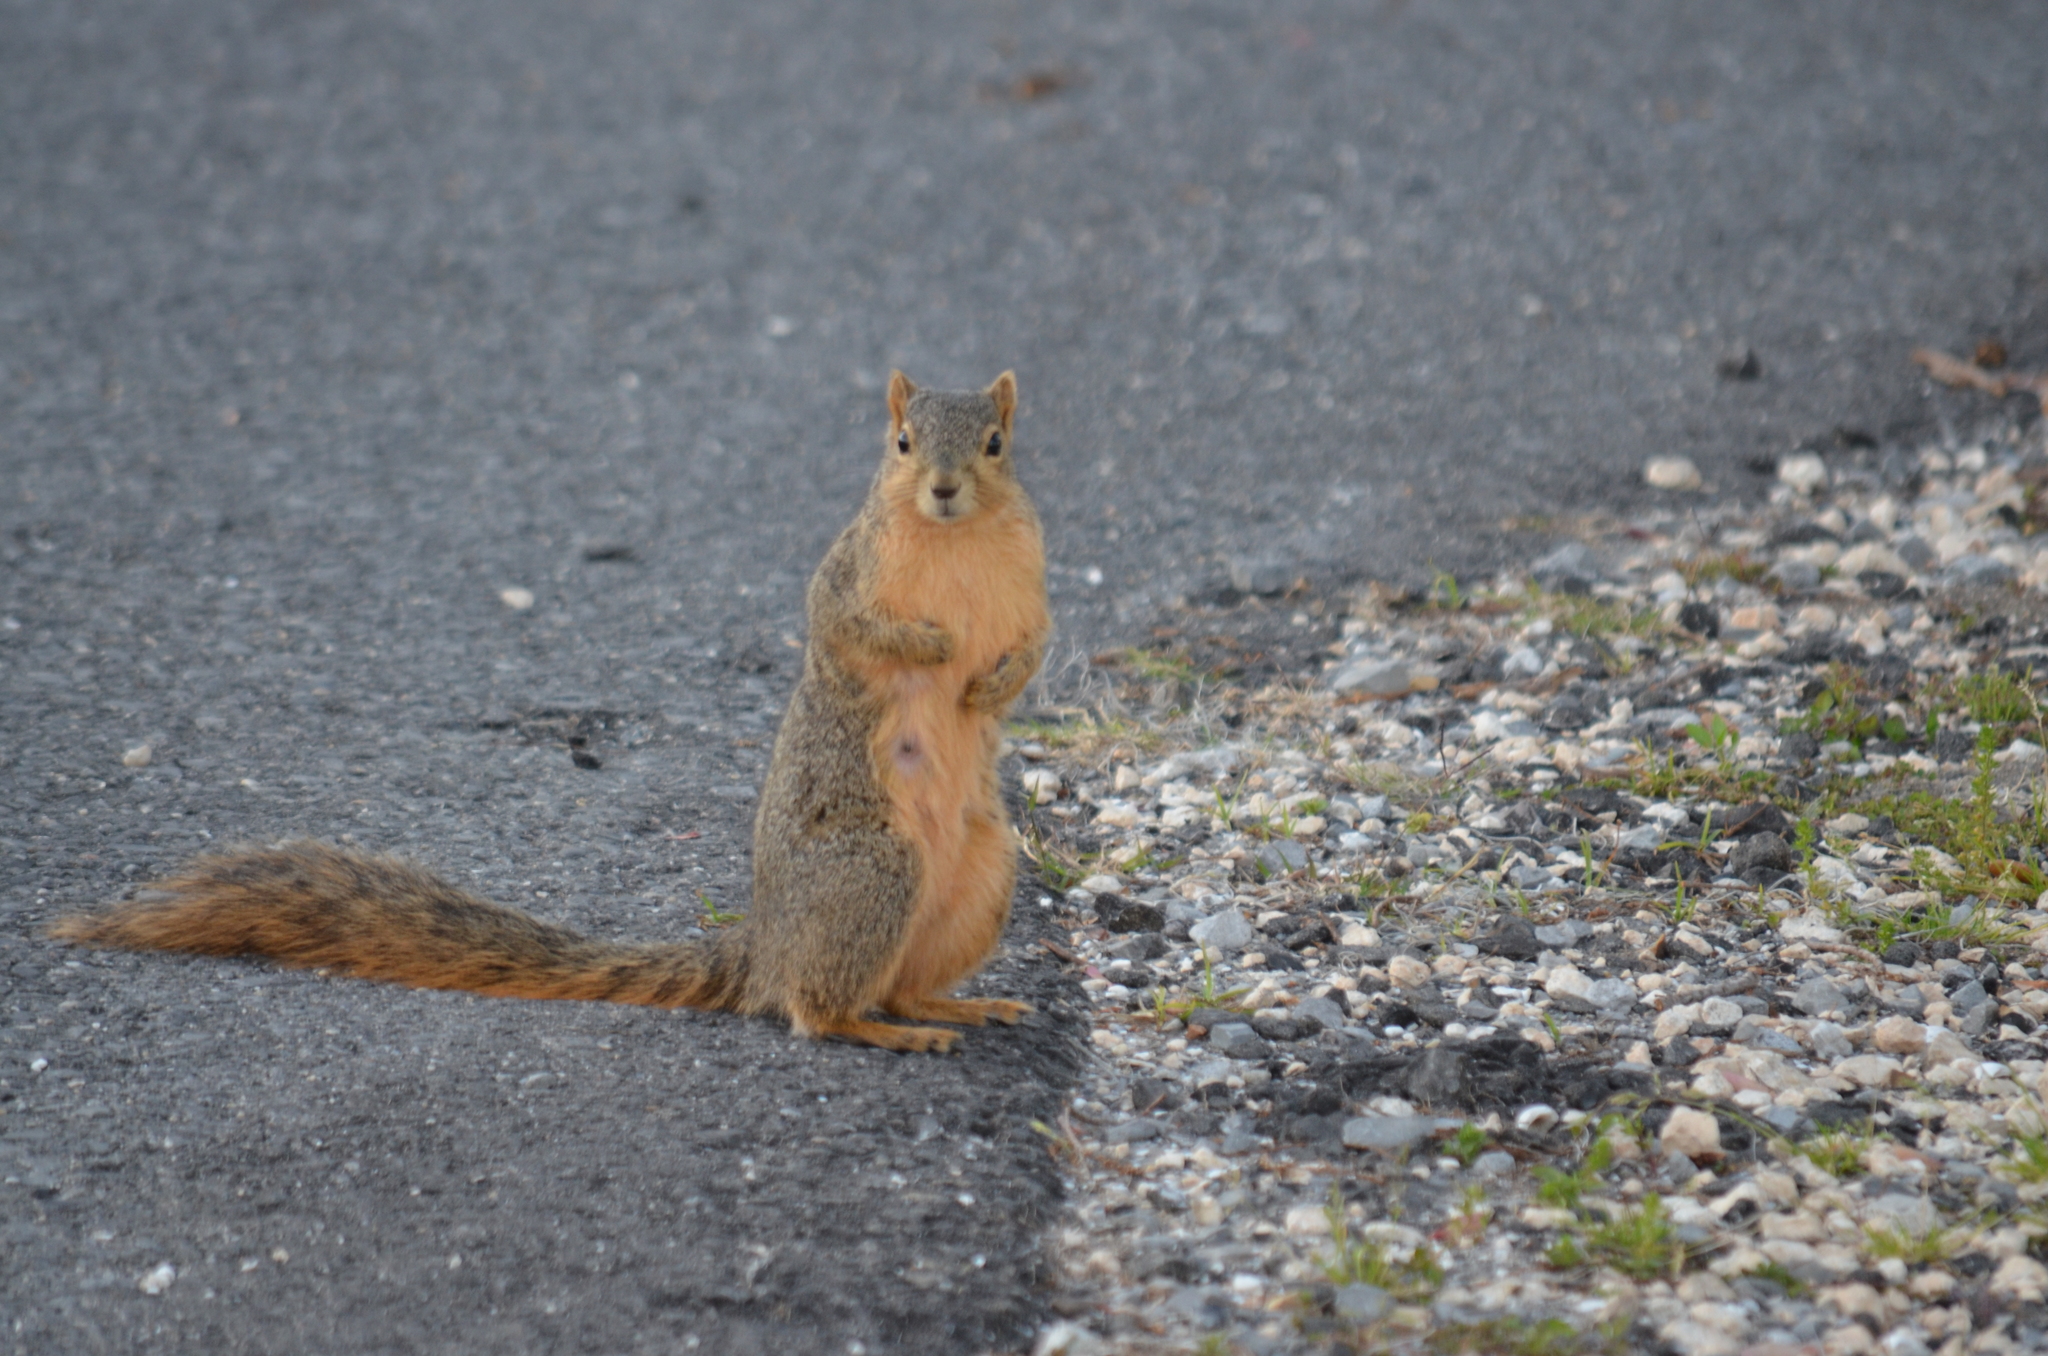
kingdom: Animalia
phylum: Chordata
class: Mammalia
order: Rodentia
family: Sciuridae
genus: Sciurus
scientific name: Sciurus niger
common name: Fox squirrel
